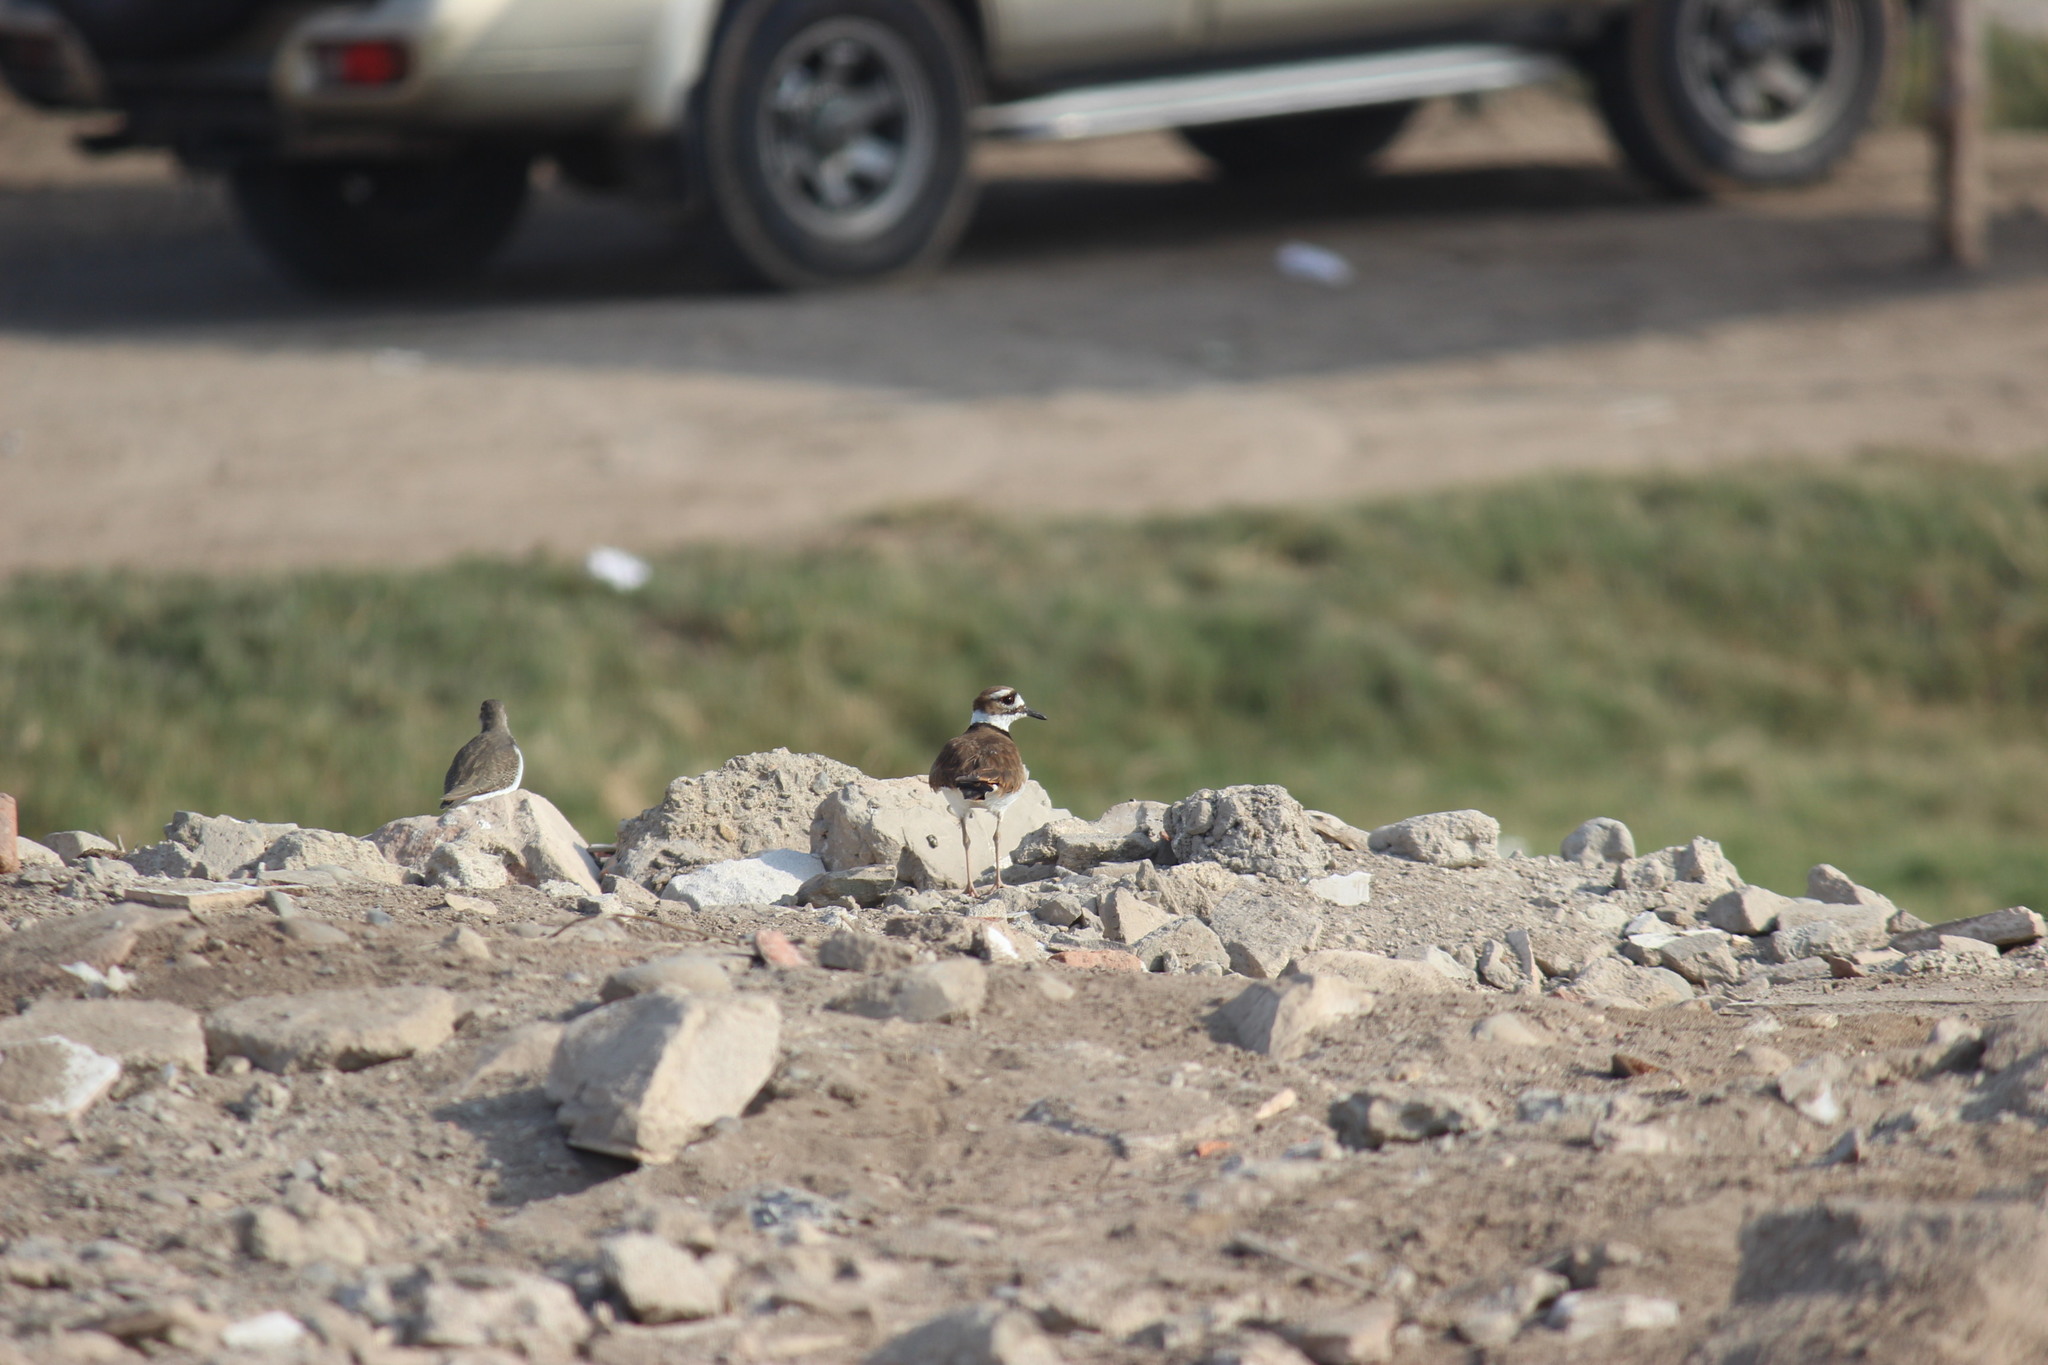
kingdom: Animalia
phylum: Chordata
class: Aves
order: Charadriiformes
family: Charadriidae
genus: Charadrius
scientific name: Charadrius vociferus
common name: Killdeer
